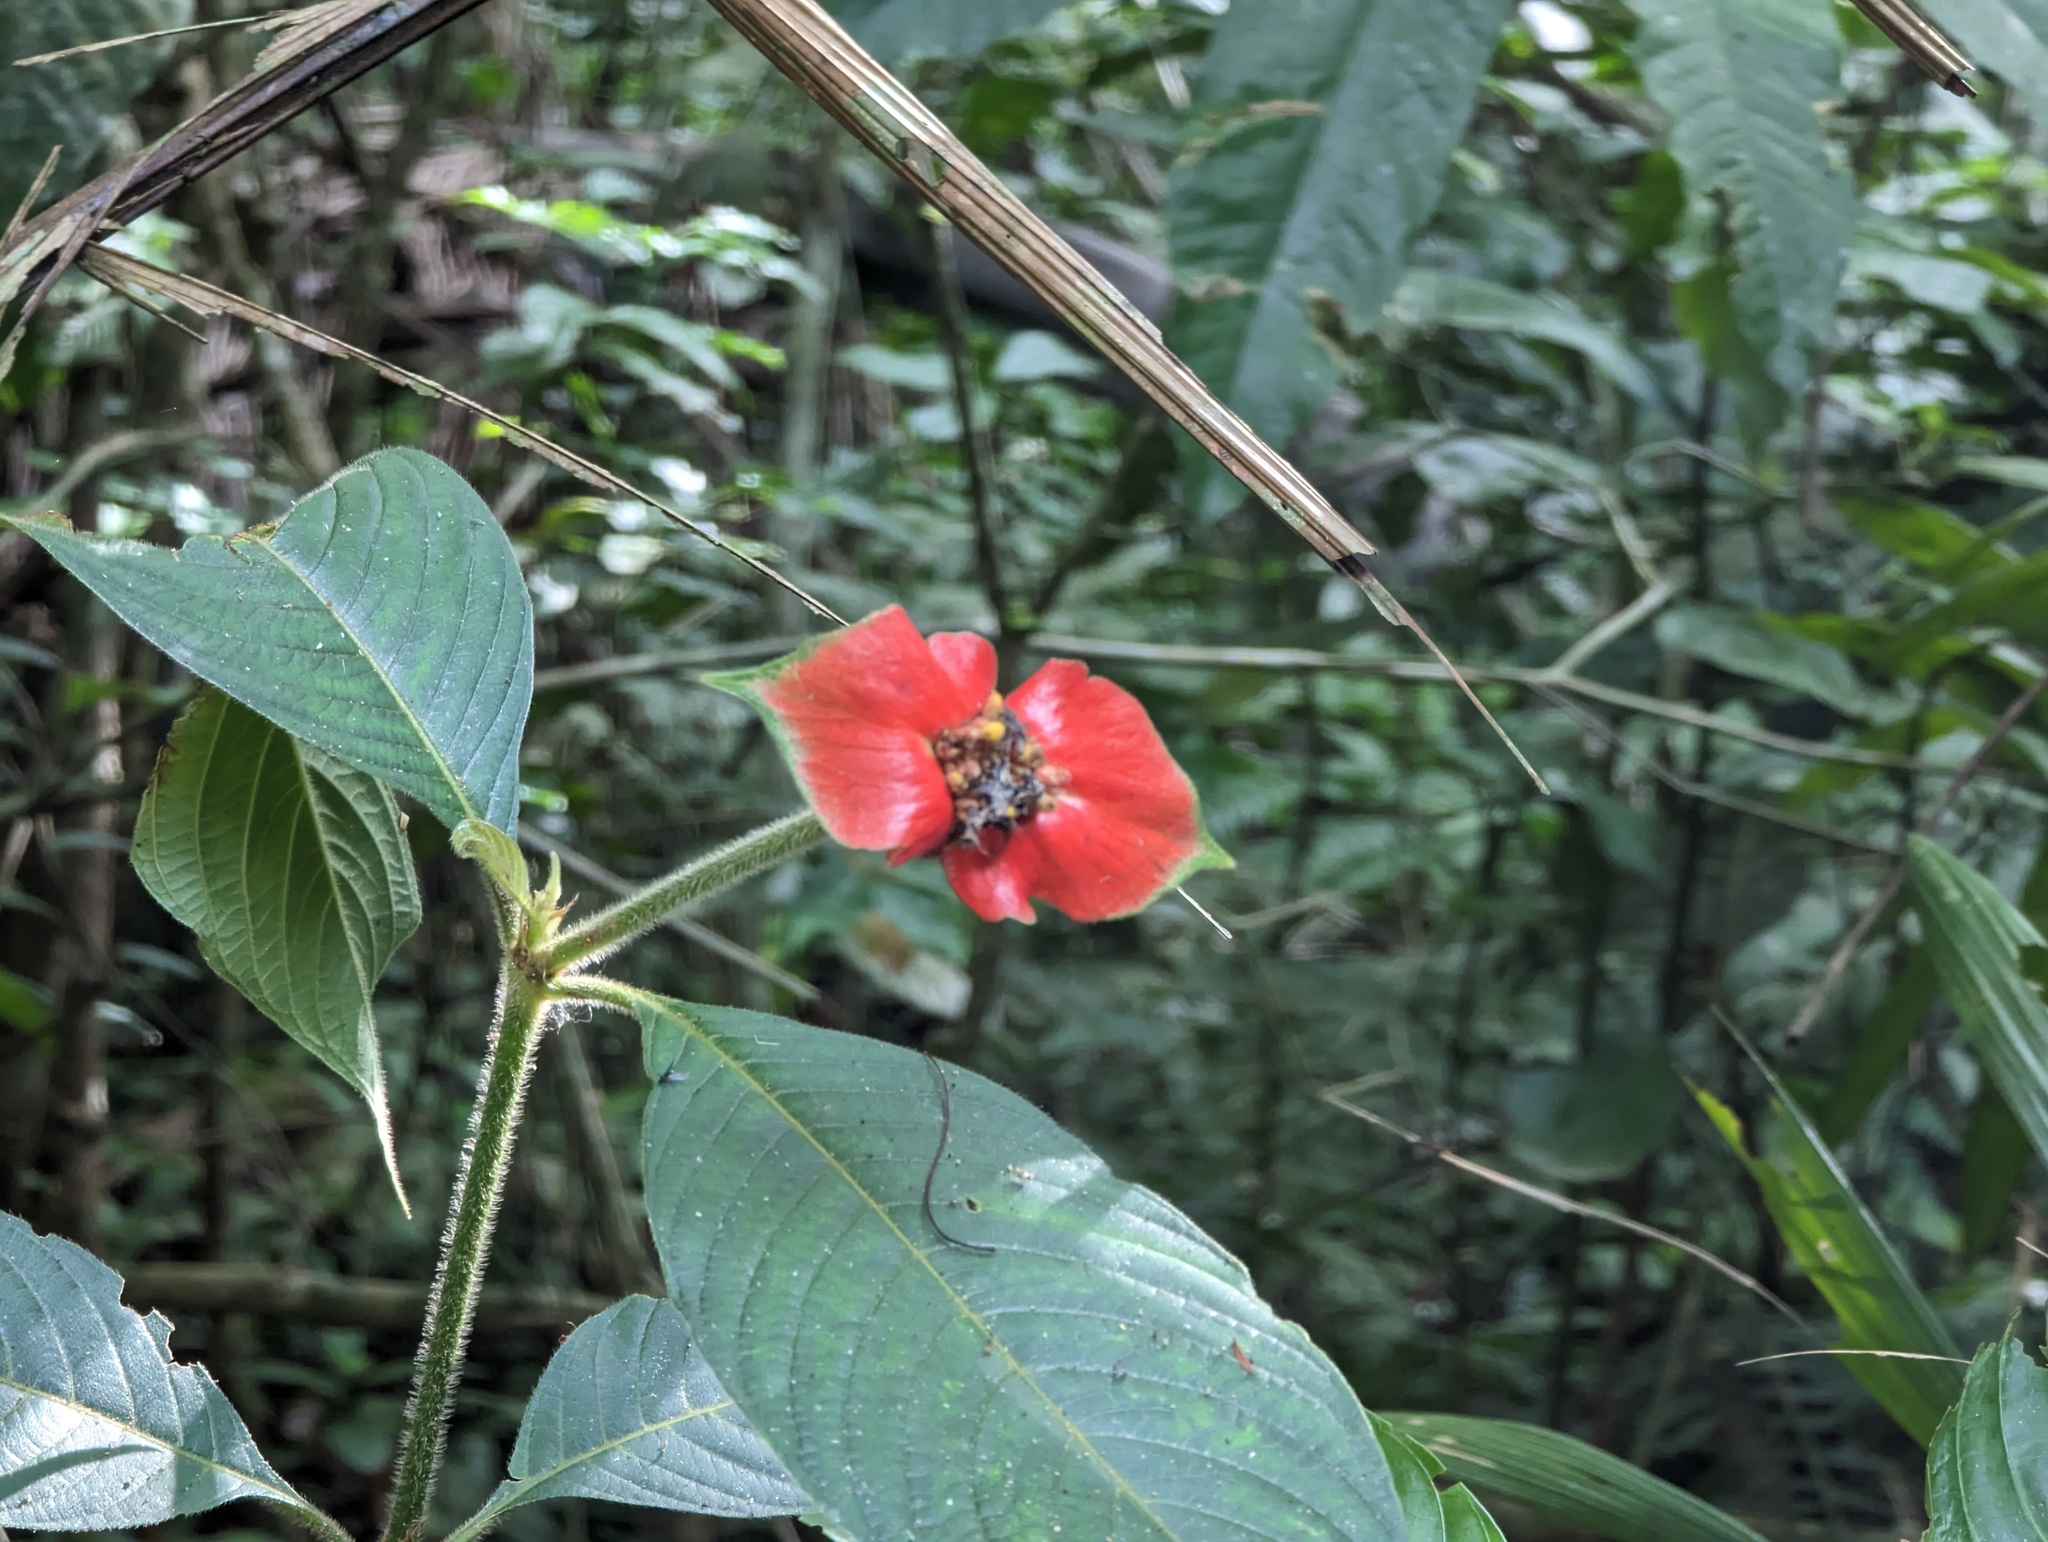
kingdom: Plantae
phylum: Tracheophyta
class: Magnoliopsida
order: Gentianales
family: Rubiaceae
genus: Palicourea
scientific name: Palicourea tomentosa
